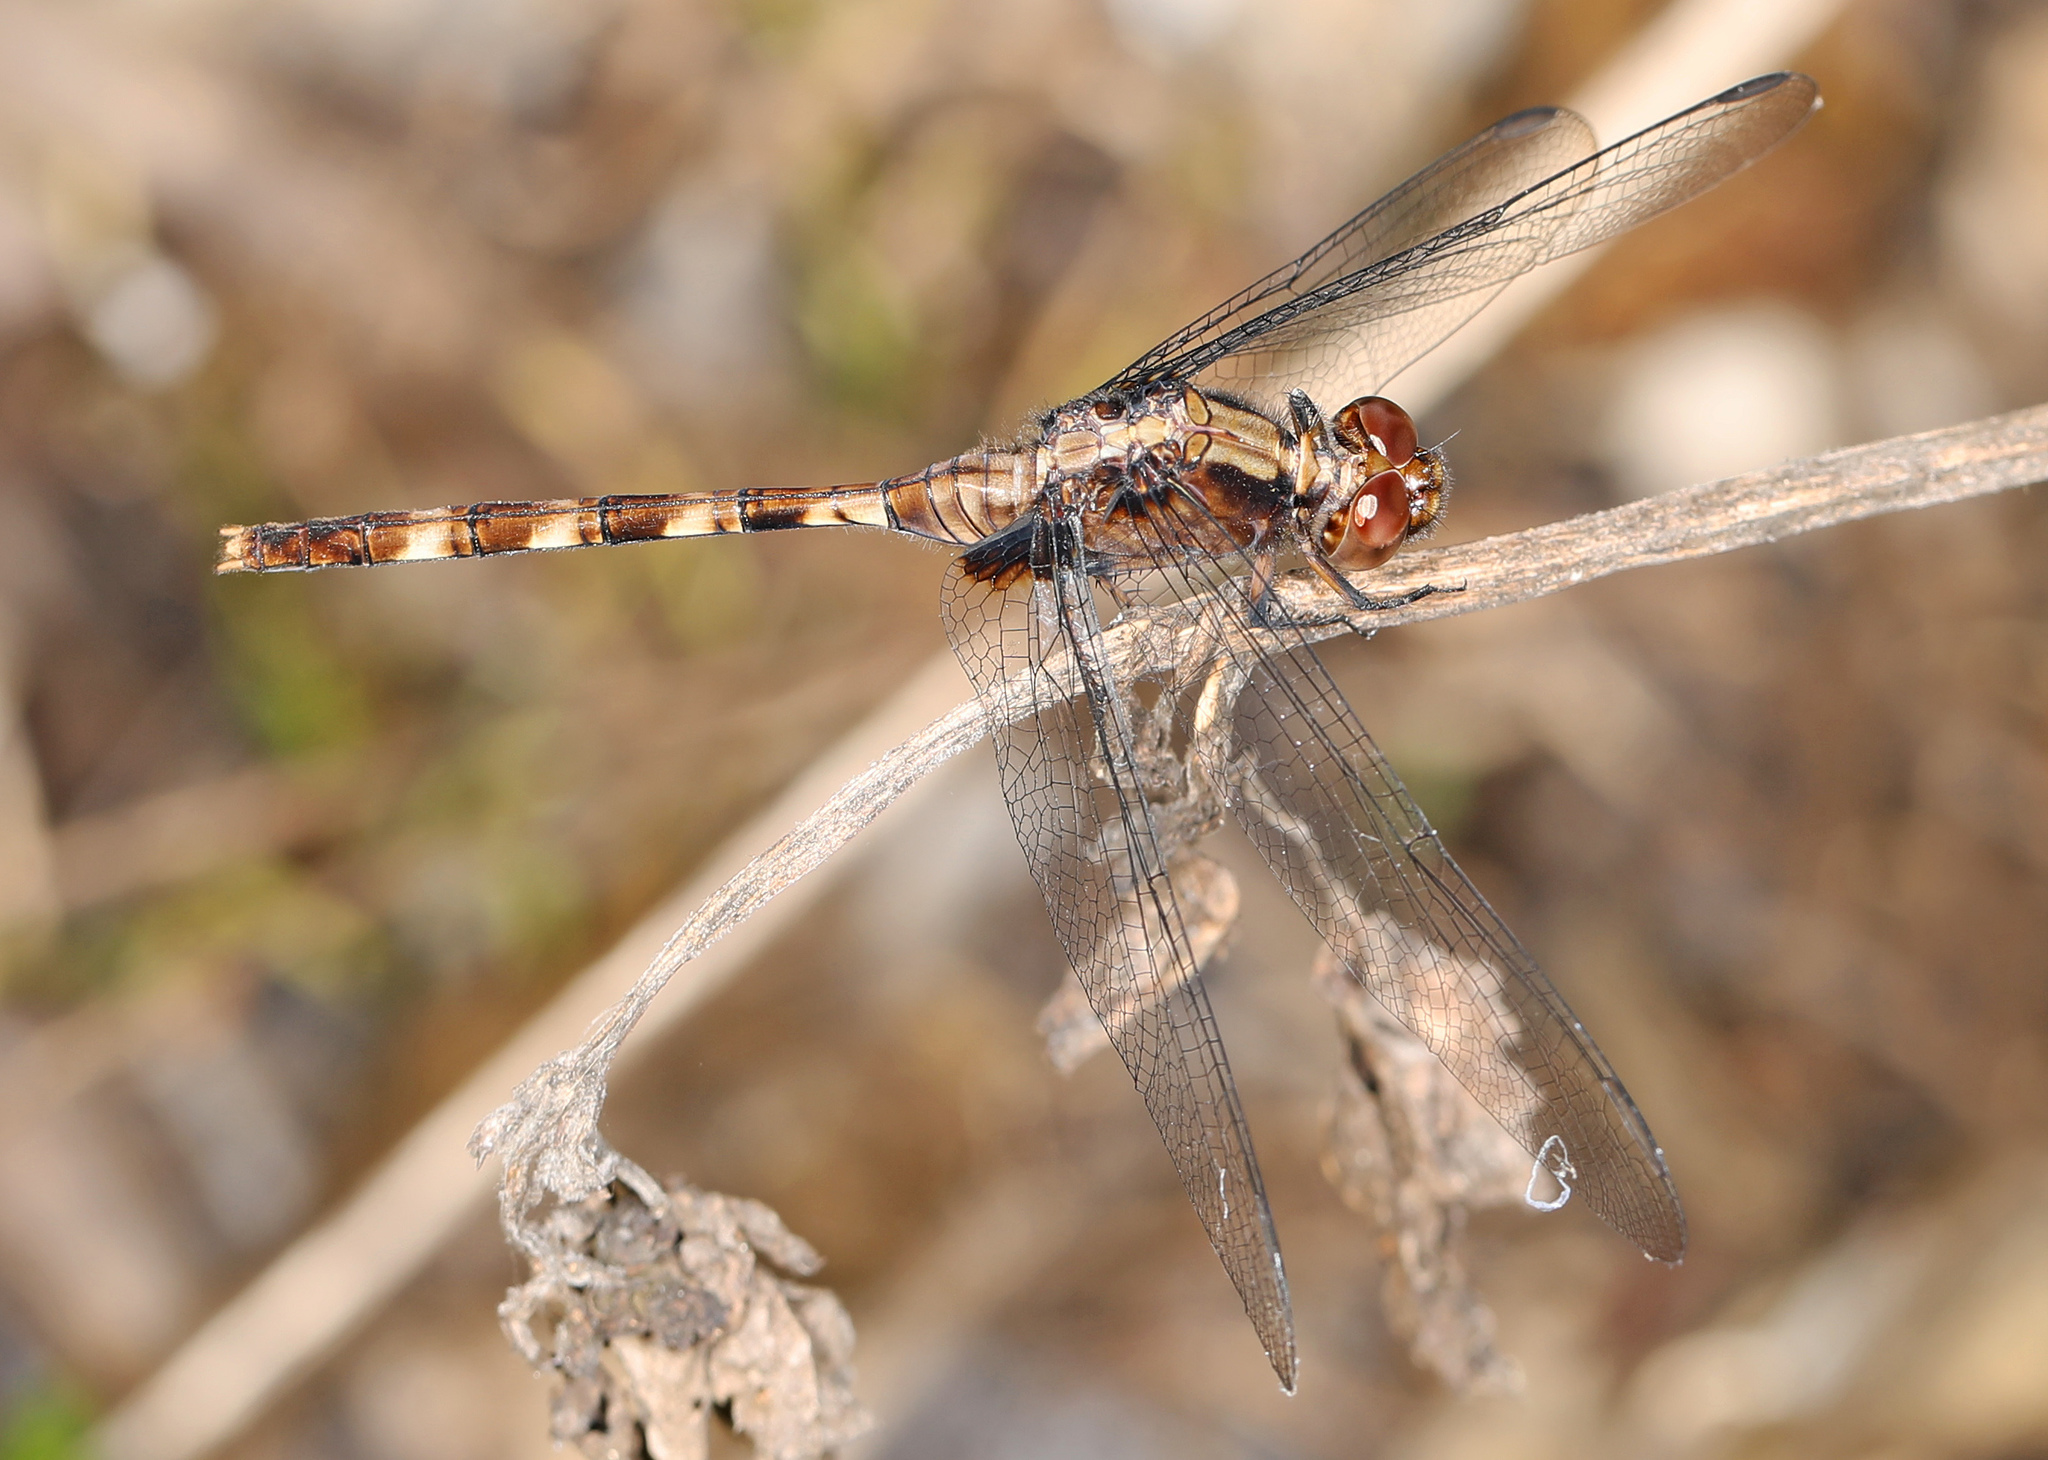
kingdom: Animalia
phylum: Arthropoda
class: Insecta
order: Odonata
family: Libellulidae
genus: Erythemis
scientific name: Erythemis plebeja
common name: Pin-tailed pondhawk
